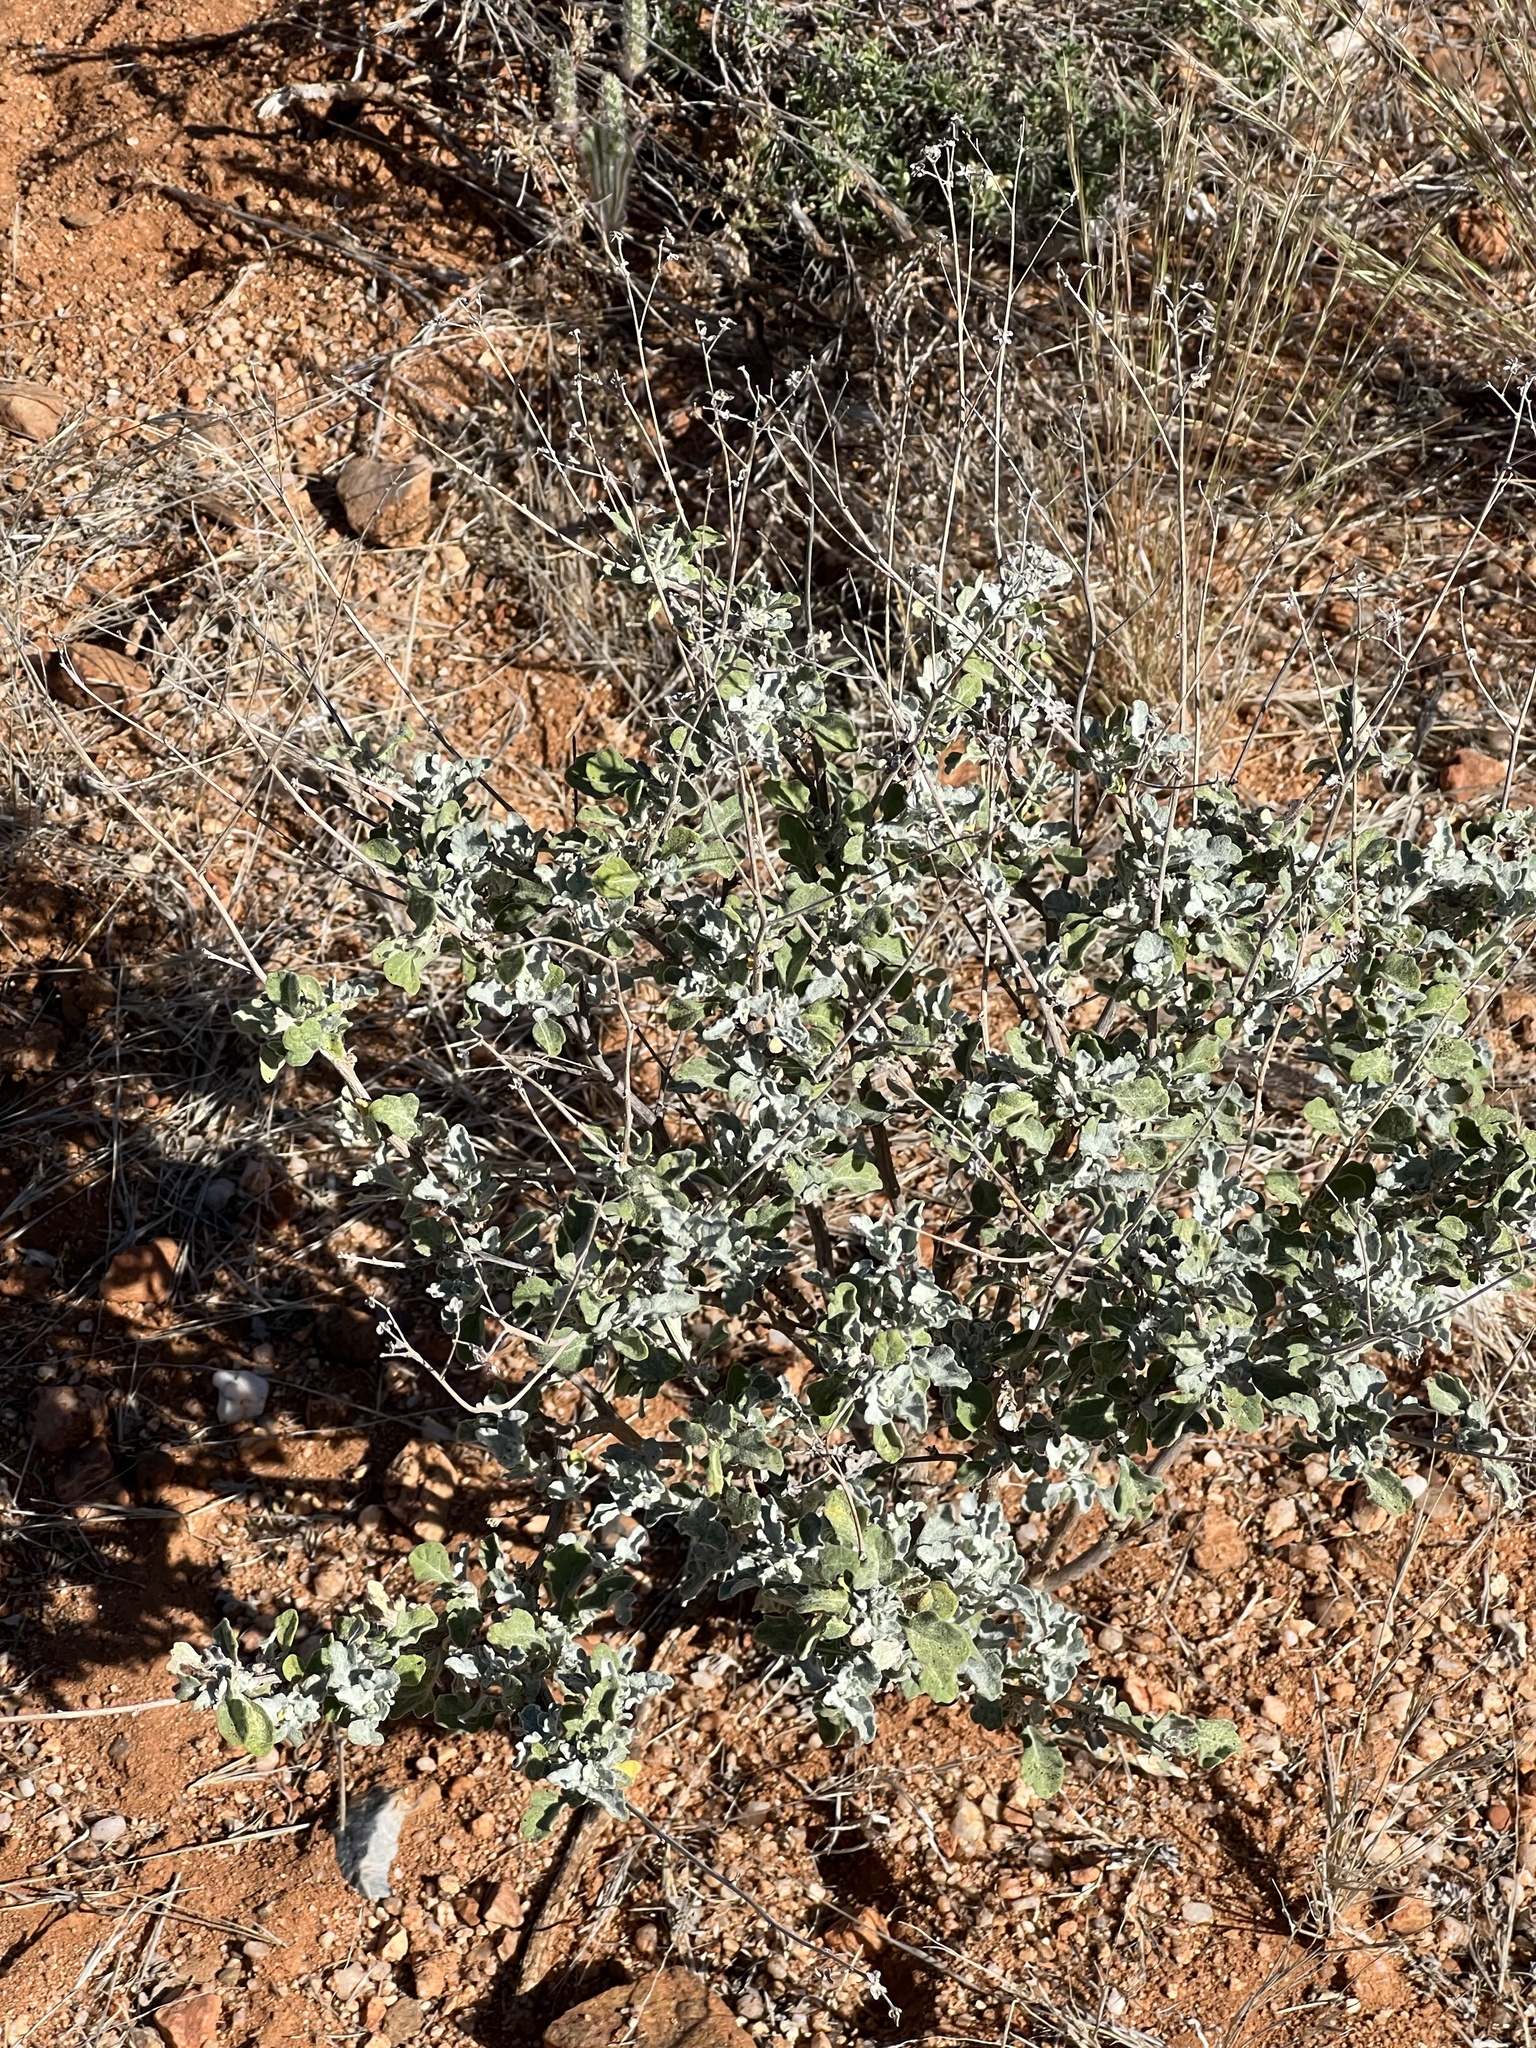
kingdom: Plantae
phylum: Tracheophyta
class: Magnoliopsida
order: Asterales
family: Asteraceae
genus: Parthenium
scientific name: Parthenium incanum
